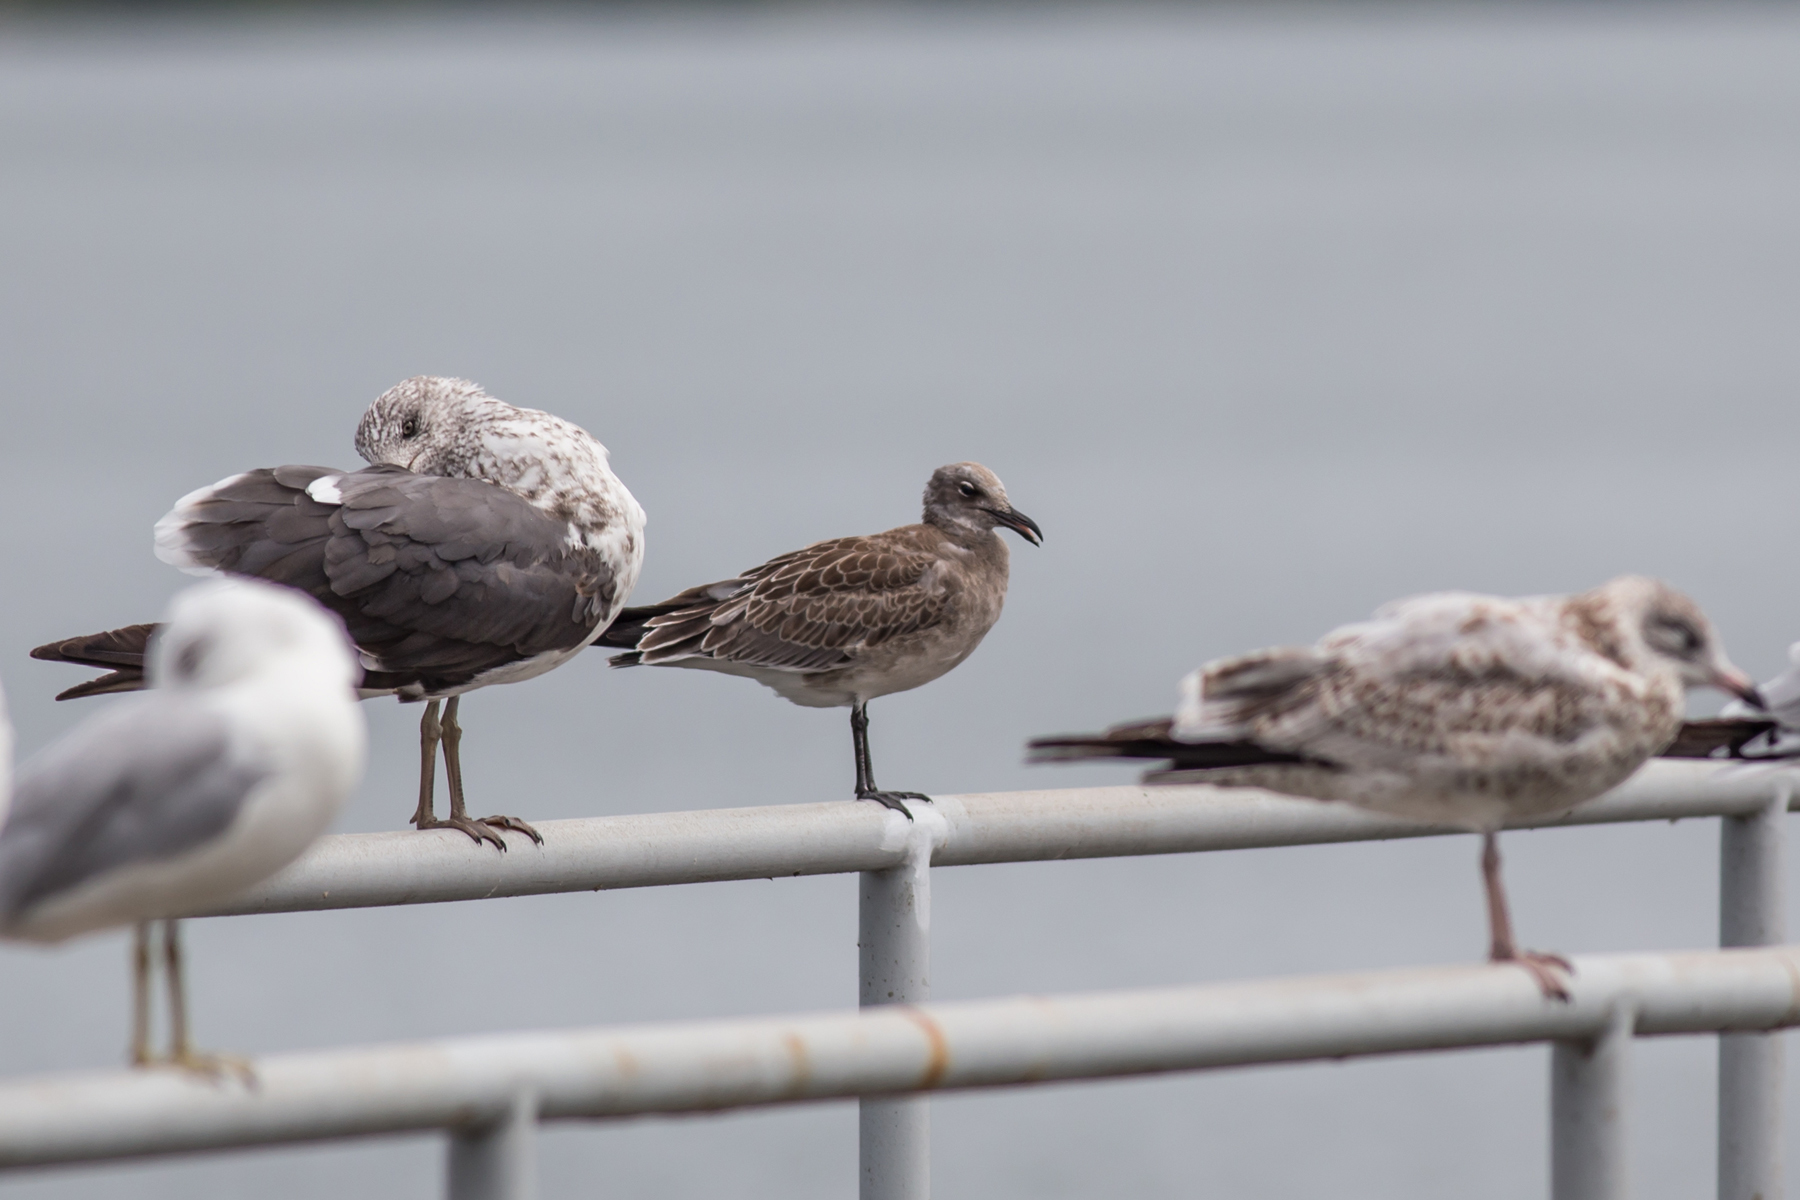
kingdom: Animalia
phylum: Chordata
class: Aves
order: Charadriiformes
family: Laridae
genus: Leucophaeus
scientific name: Leucophaeus atricilla
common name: Laughing gull
